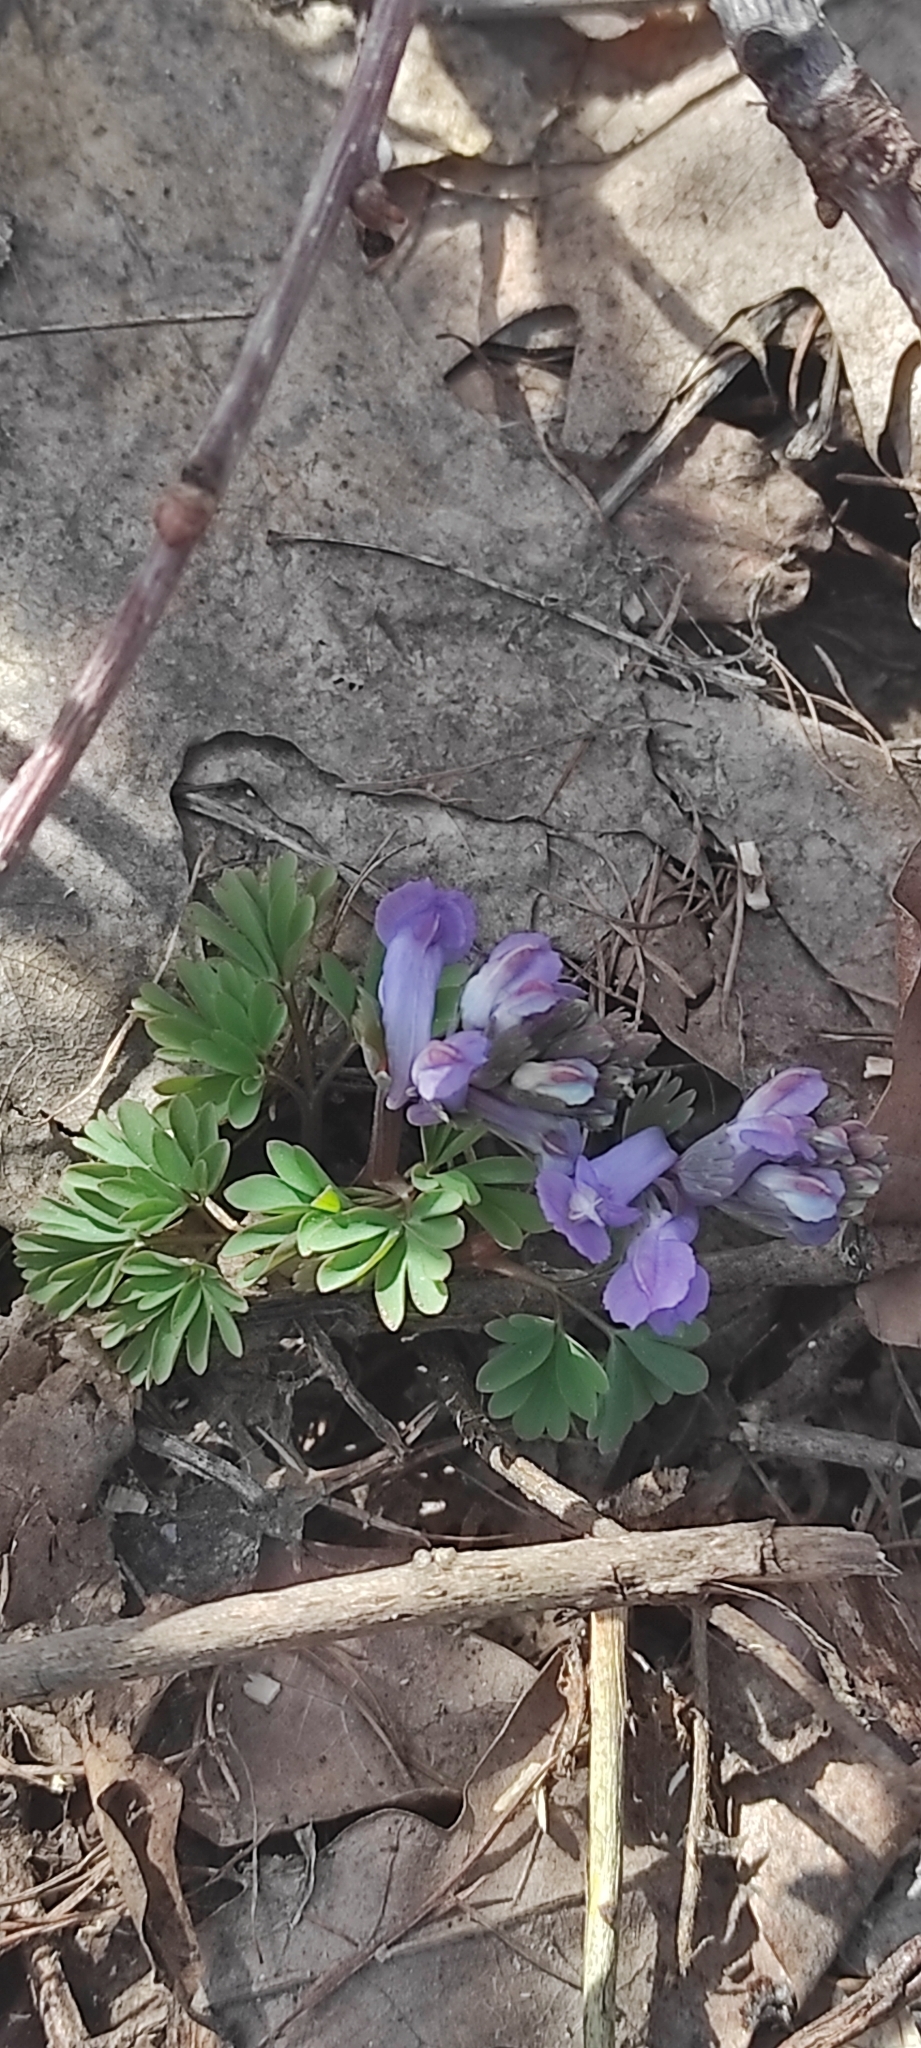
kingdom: Plantae
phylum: Tracheophyta
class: Magnoliopsida
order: Ranunculales
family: Papaveraceae
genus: Corydalis
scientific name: Corydalis solida
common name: Bird-in-a-bush
